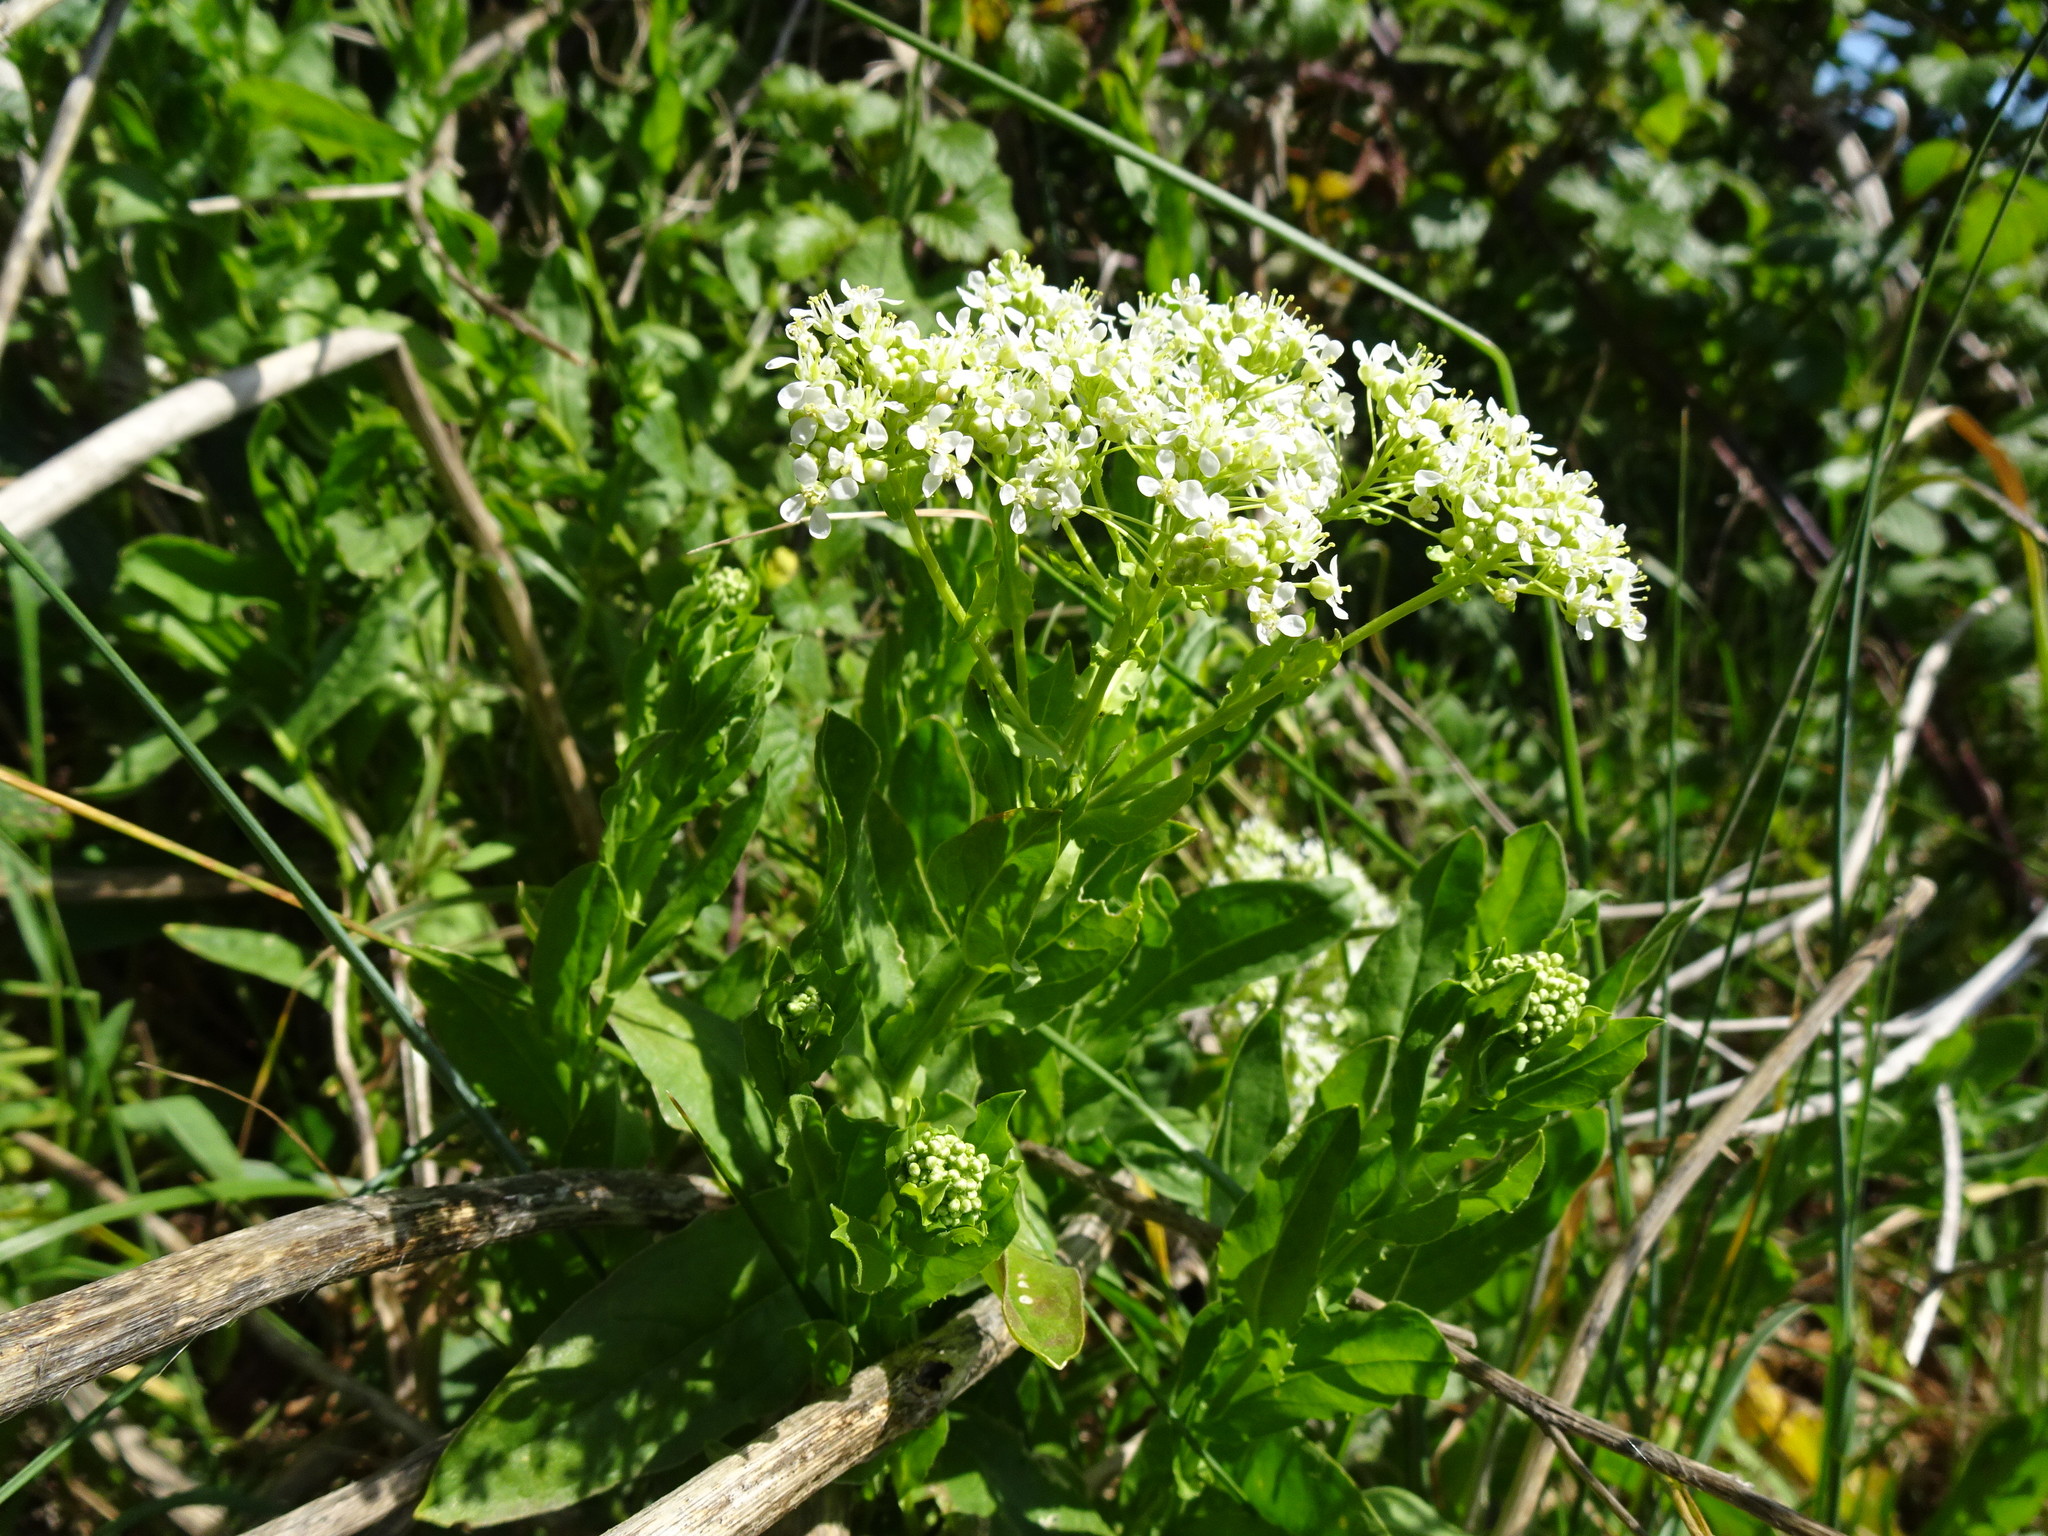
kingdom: Plantae
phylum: Tracheophyta
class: Magnoliopsida
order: Brassicales
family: Brassicaceae
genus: Lepidium
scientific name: Lepidium draba
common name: Hoary cress
